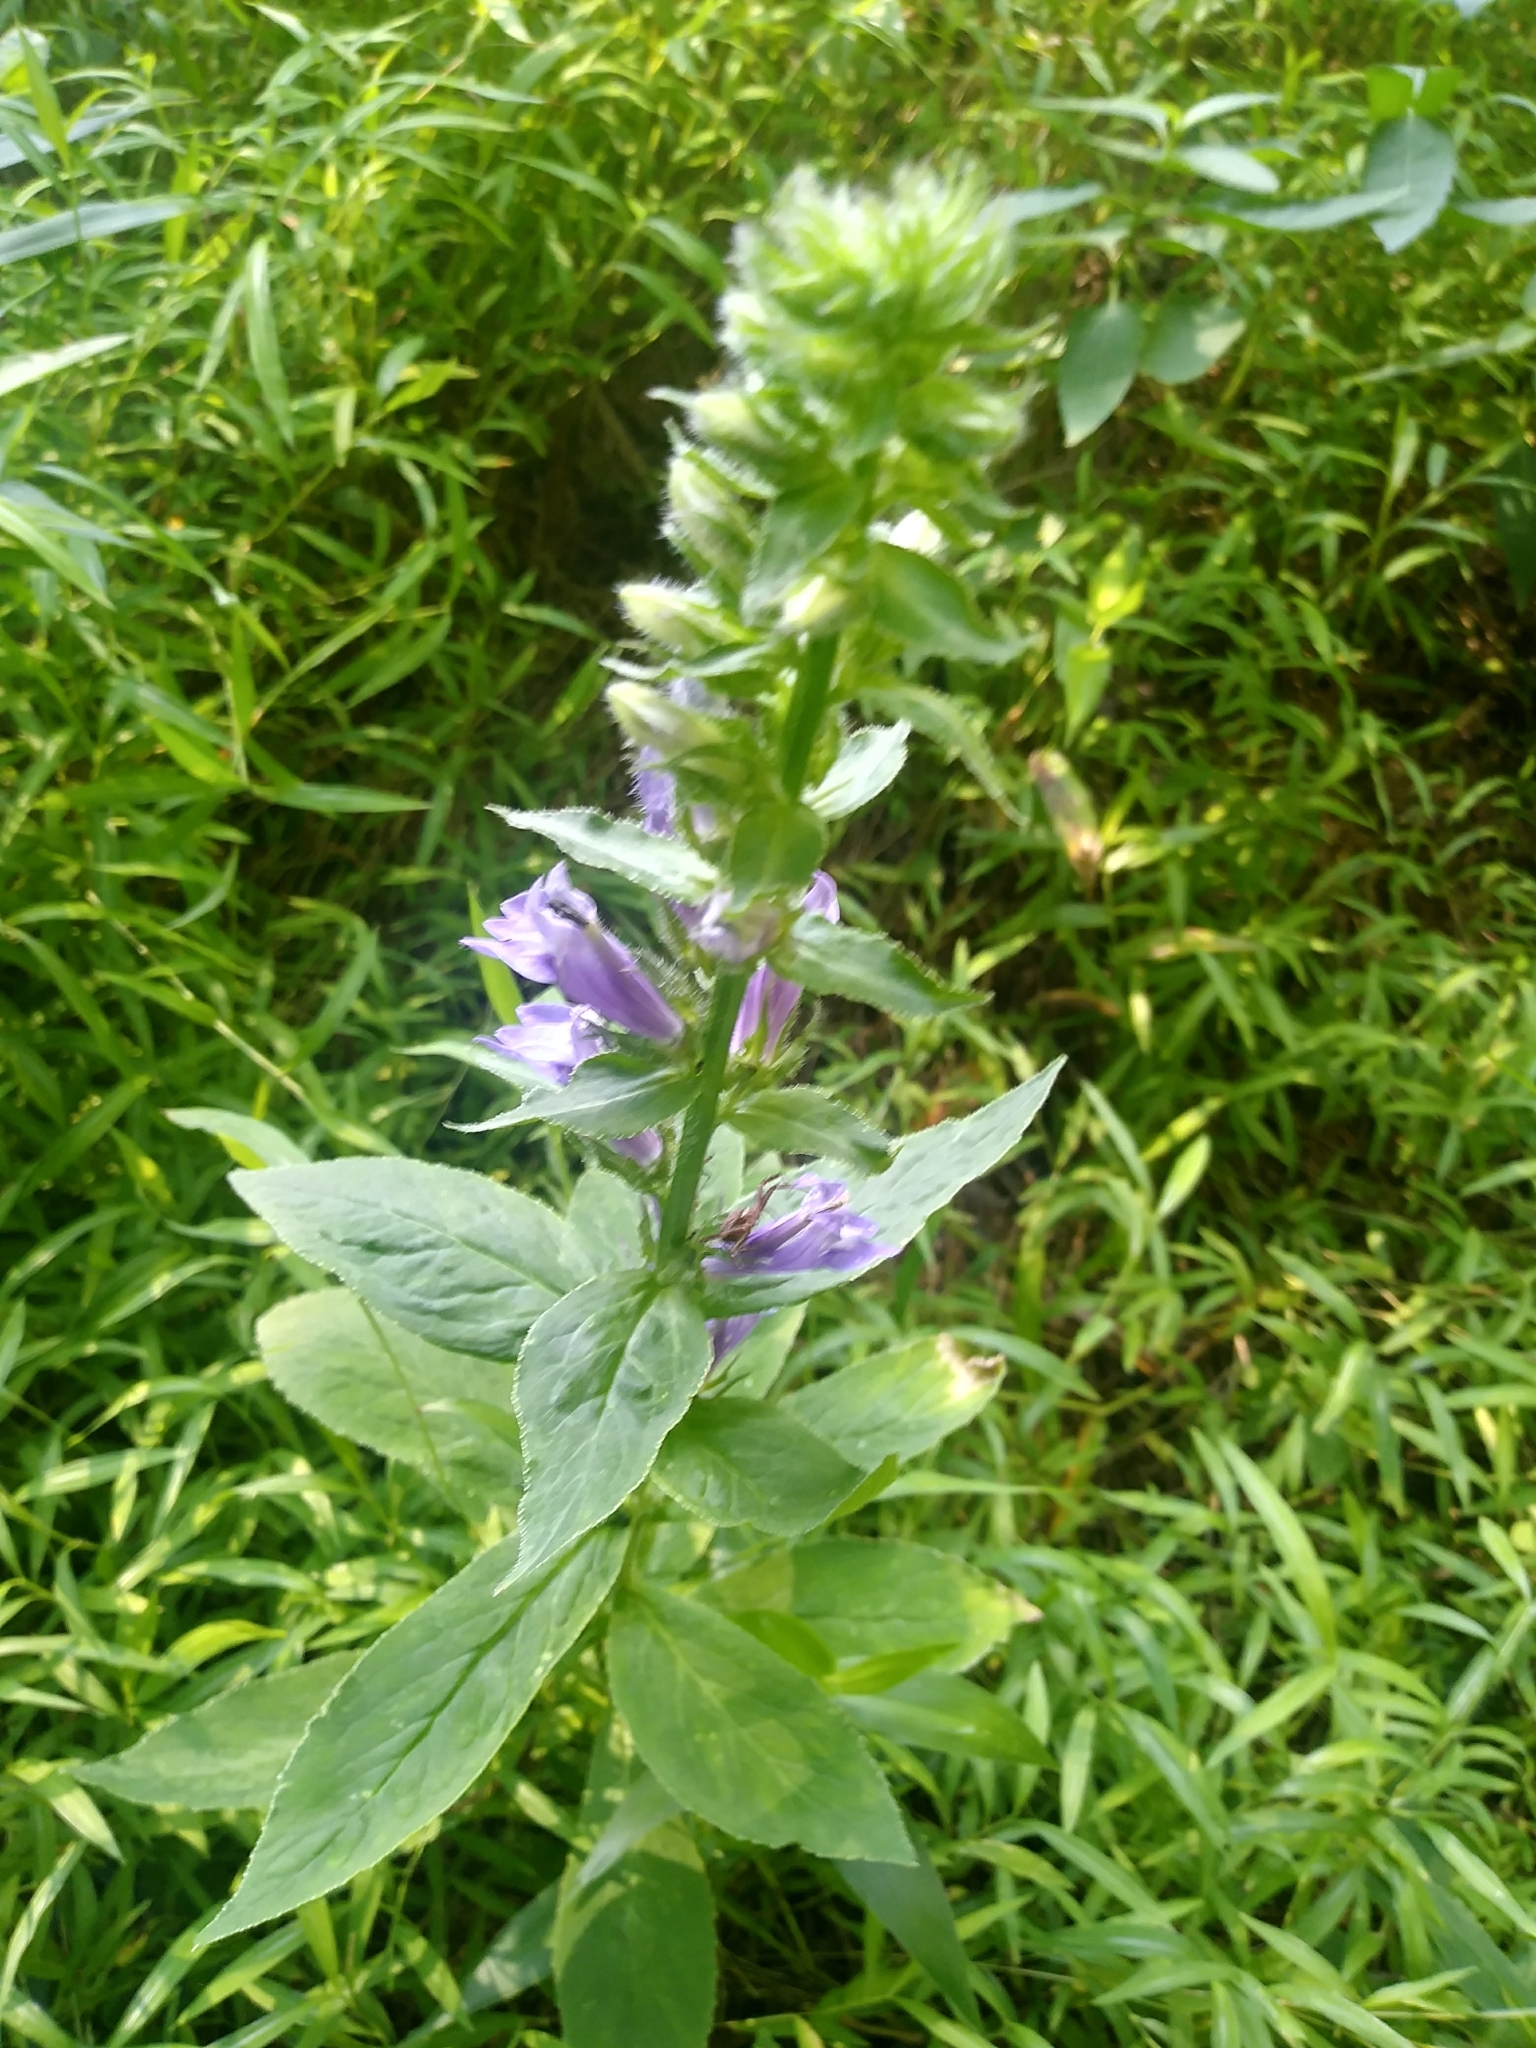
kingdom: Plantae
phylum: Tracheophyta
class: Magnoliopsida
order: Asterales
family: Campanulaceae
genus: Lobelia
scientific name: Lobelia siphilitica
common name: Great lobelia
